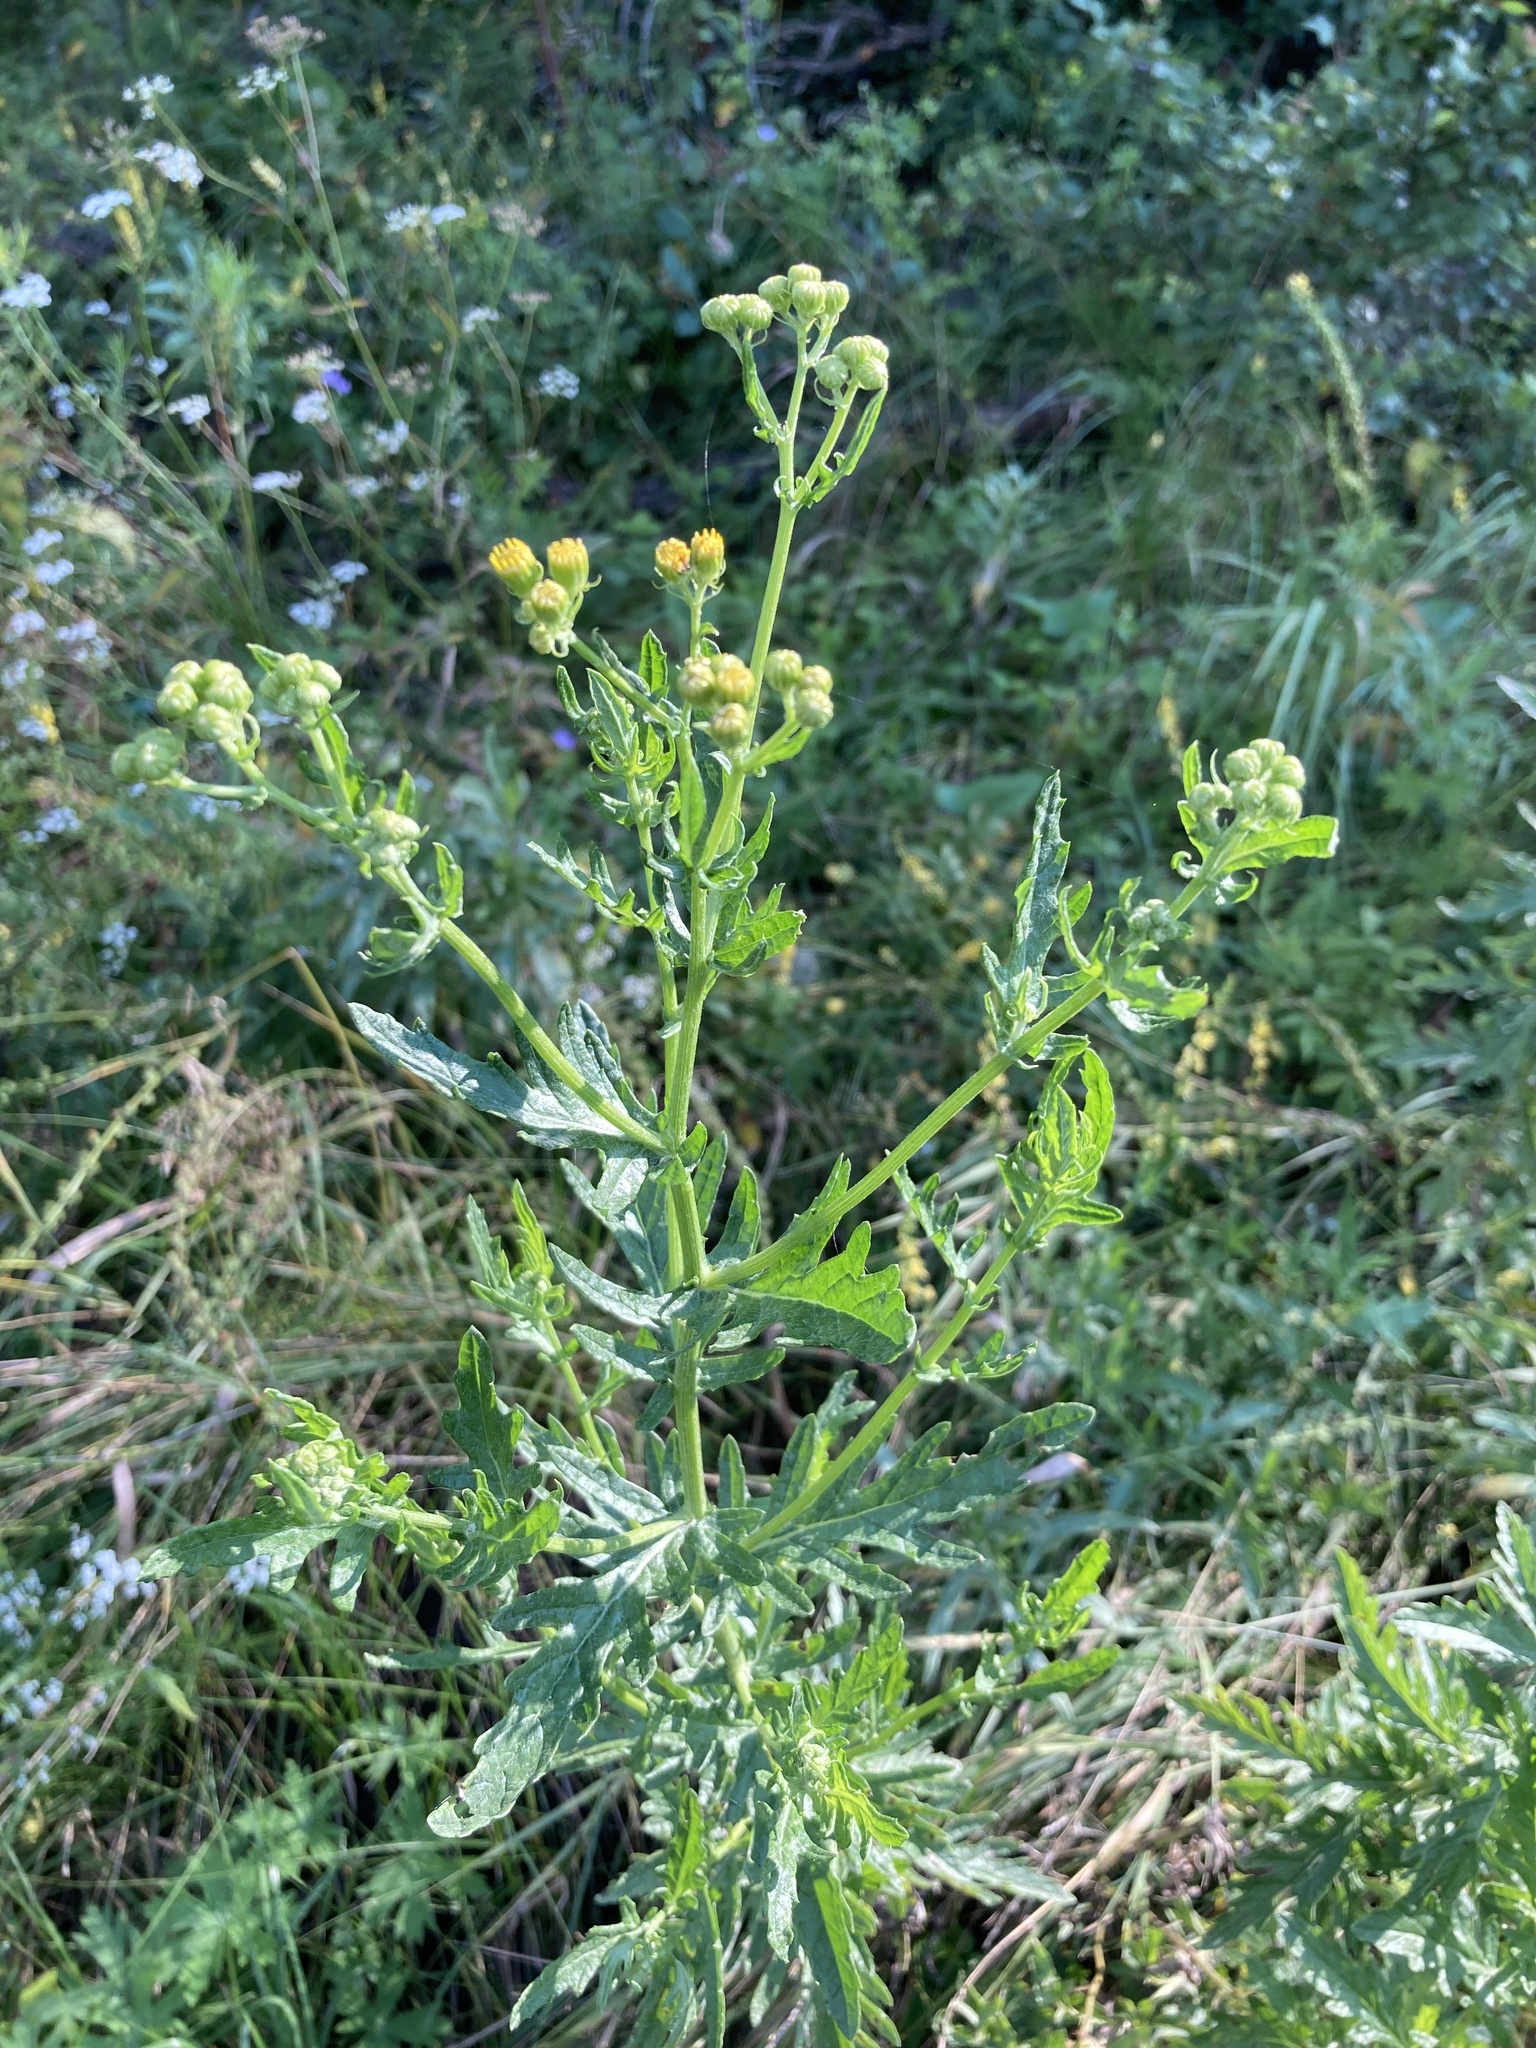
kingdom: Plantae
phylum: Tracheophyta
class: Magnoliopsida
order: Asterales
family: Asteraceae
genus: Jacobaea
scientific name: Jacobaea erucifolia
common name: Hoary ragwort
